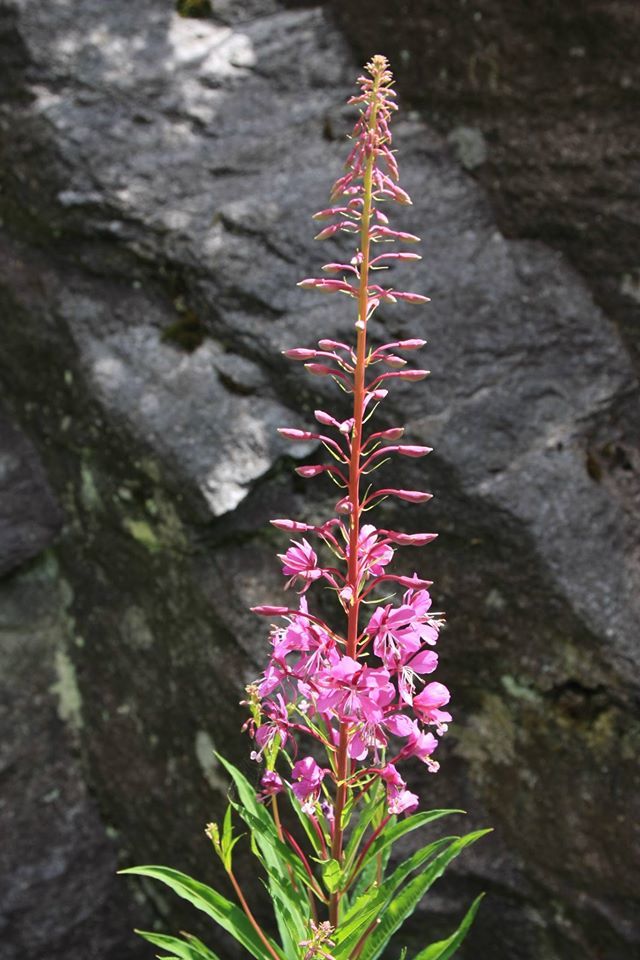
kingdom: Plantae
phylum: Tracheophyta
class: Magnoliopsida
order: Myrtales
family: Onagraceae
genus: Chamaenerion
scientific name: Chamaenerion angustifolium
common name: Fireweed
